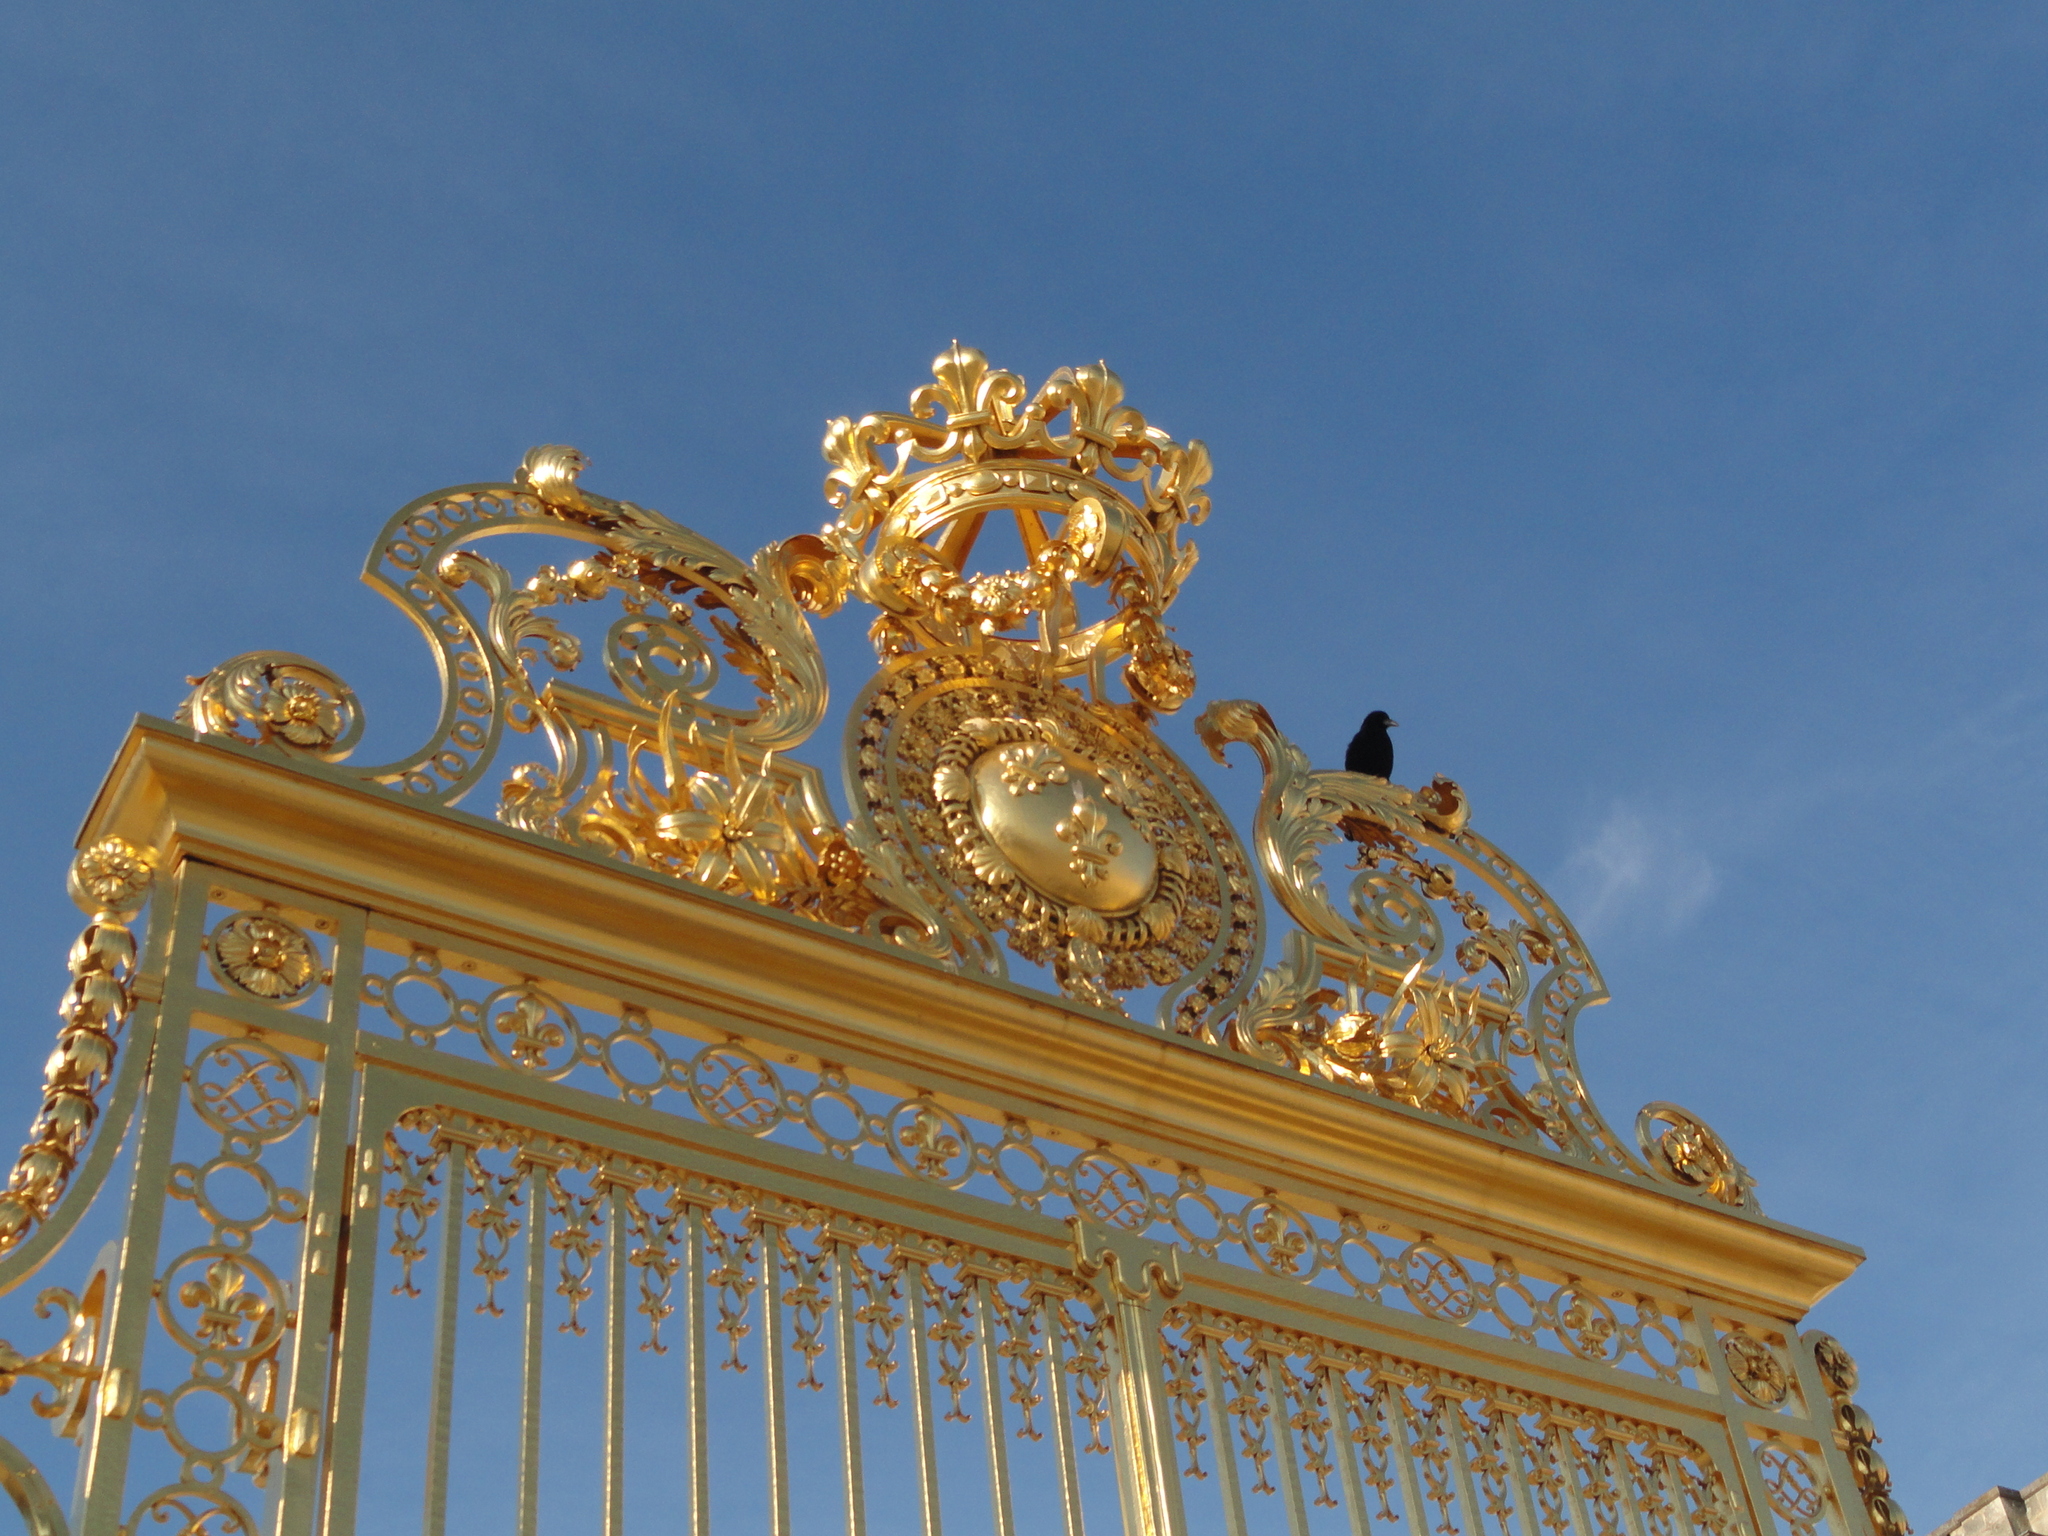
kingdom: Animalia
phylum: Chordata
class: Aves
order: Passeriformes
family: Corvidae
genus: Corvus
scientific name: Corvus corone
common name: Carrion crow
